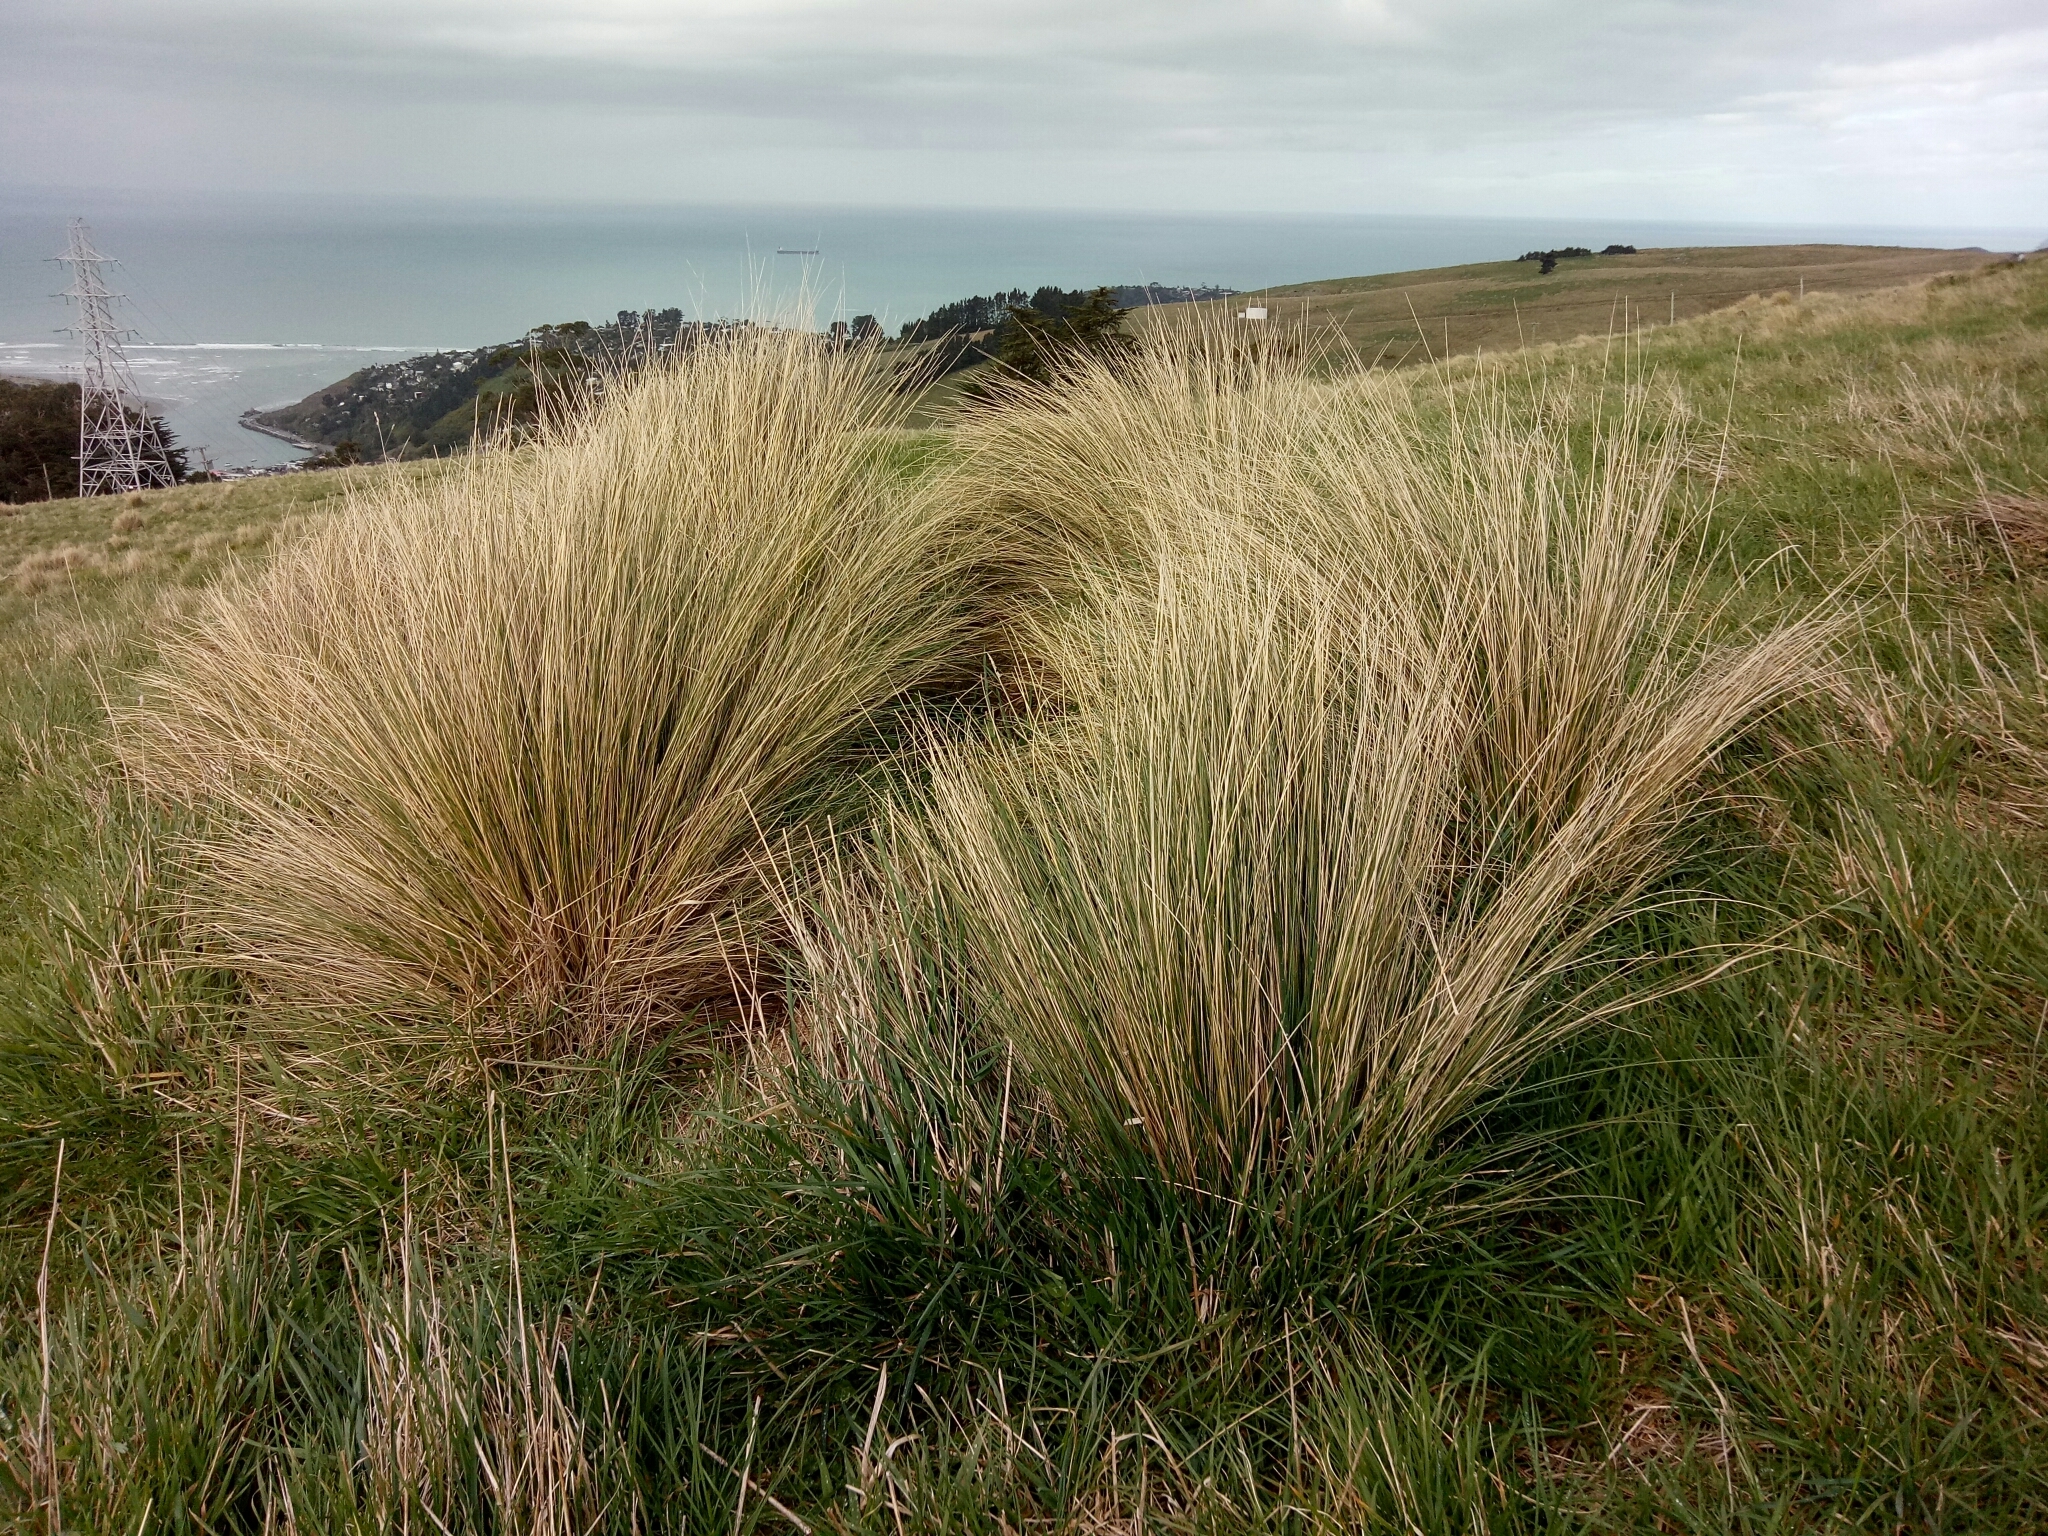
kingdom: Plantae
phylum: Tracheophyta
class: Liliopsida
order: Poales
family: Poaceae
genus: Poa
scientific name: Poa cita
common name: Silver tussock
